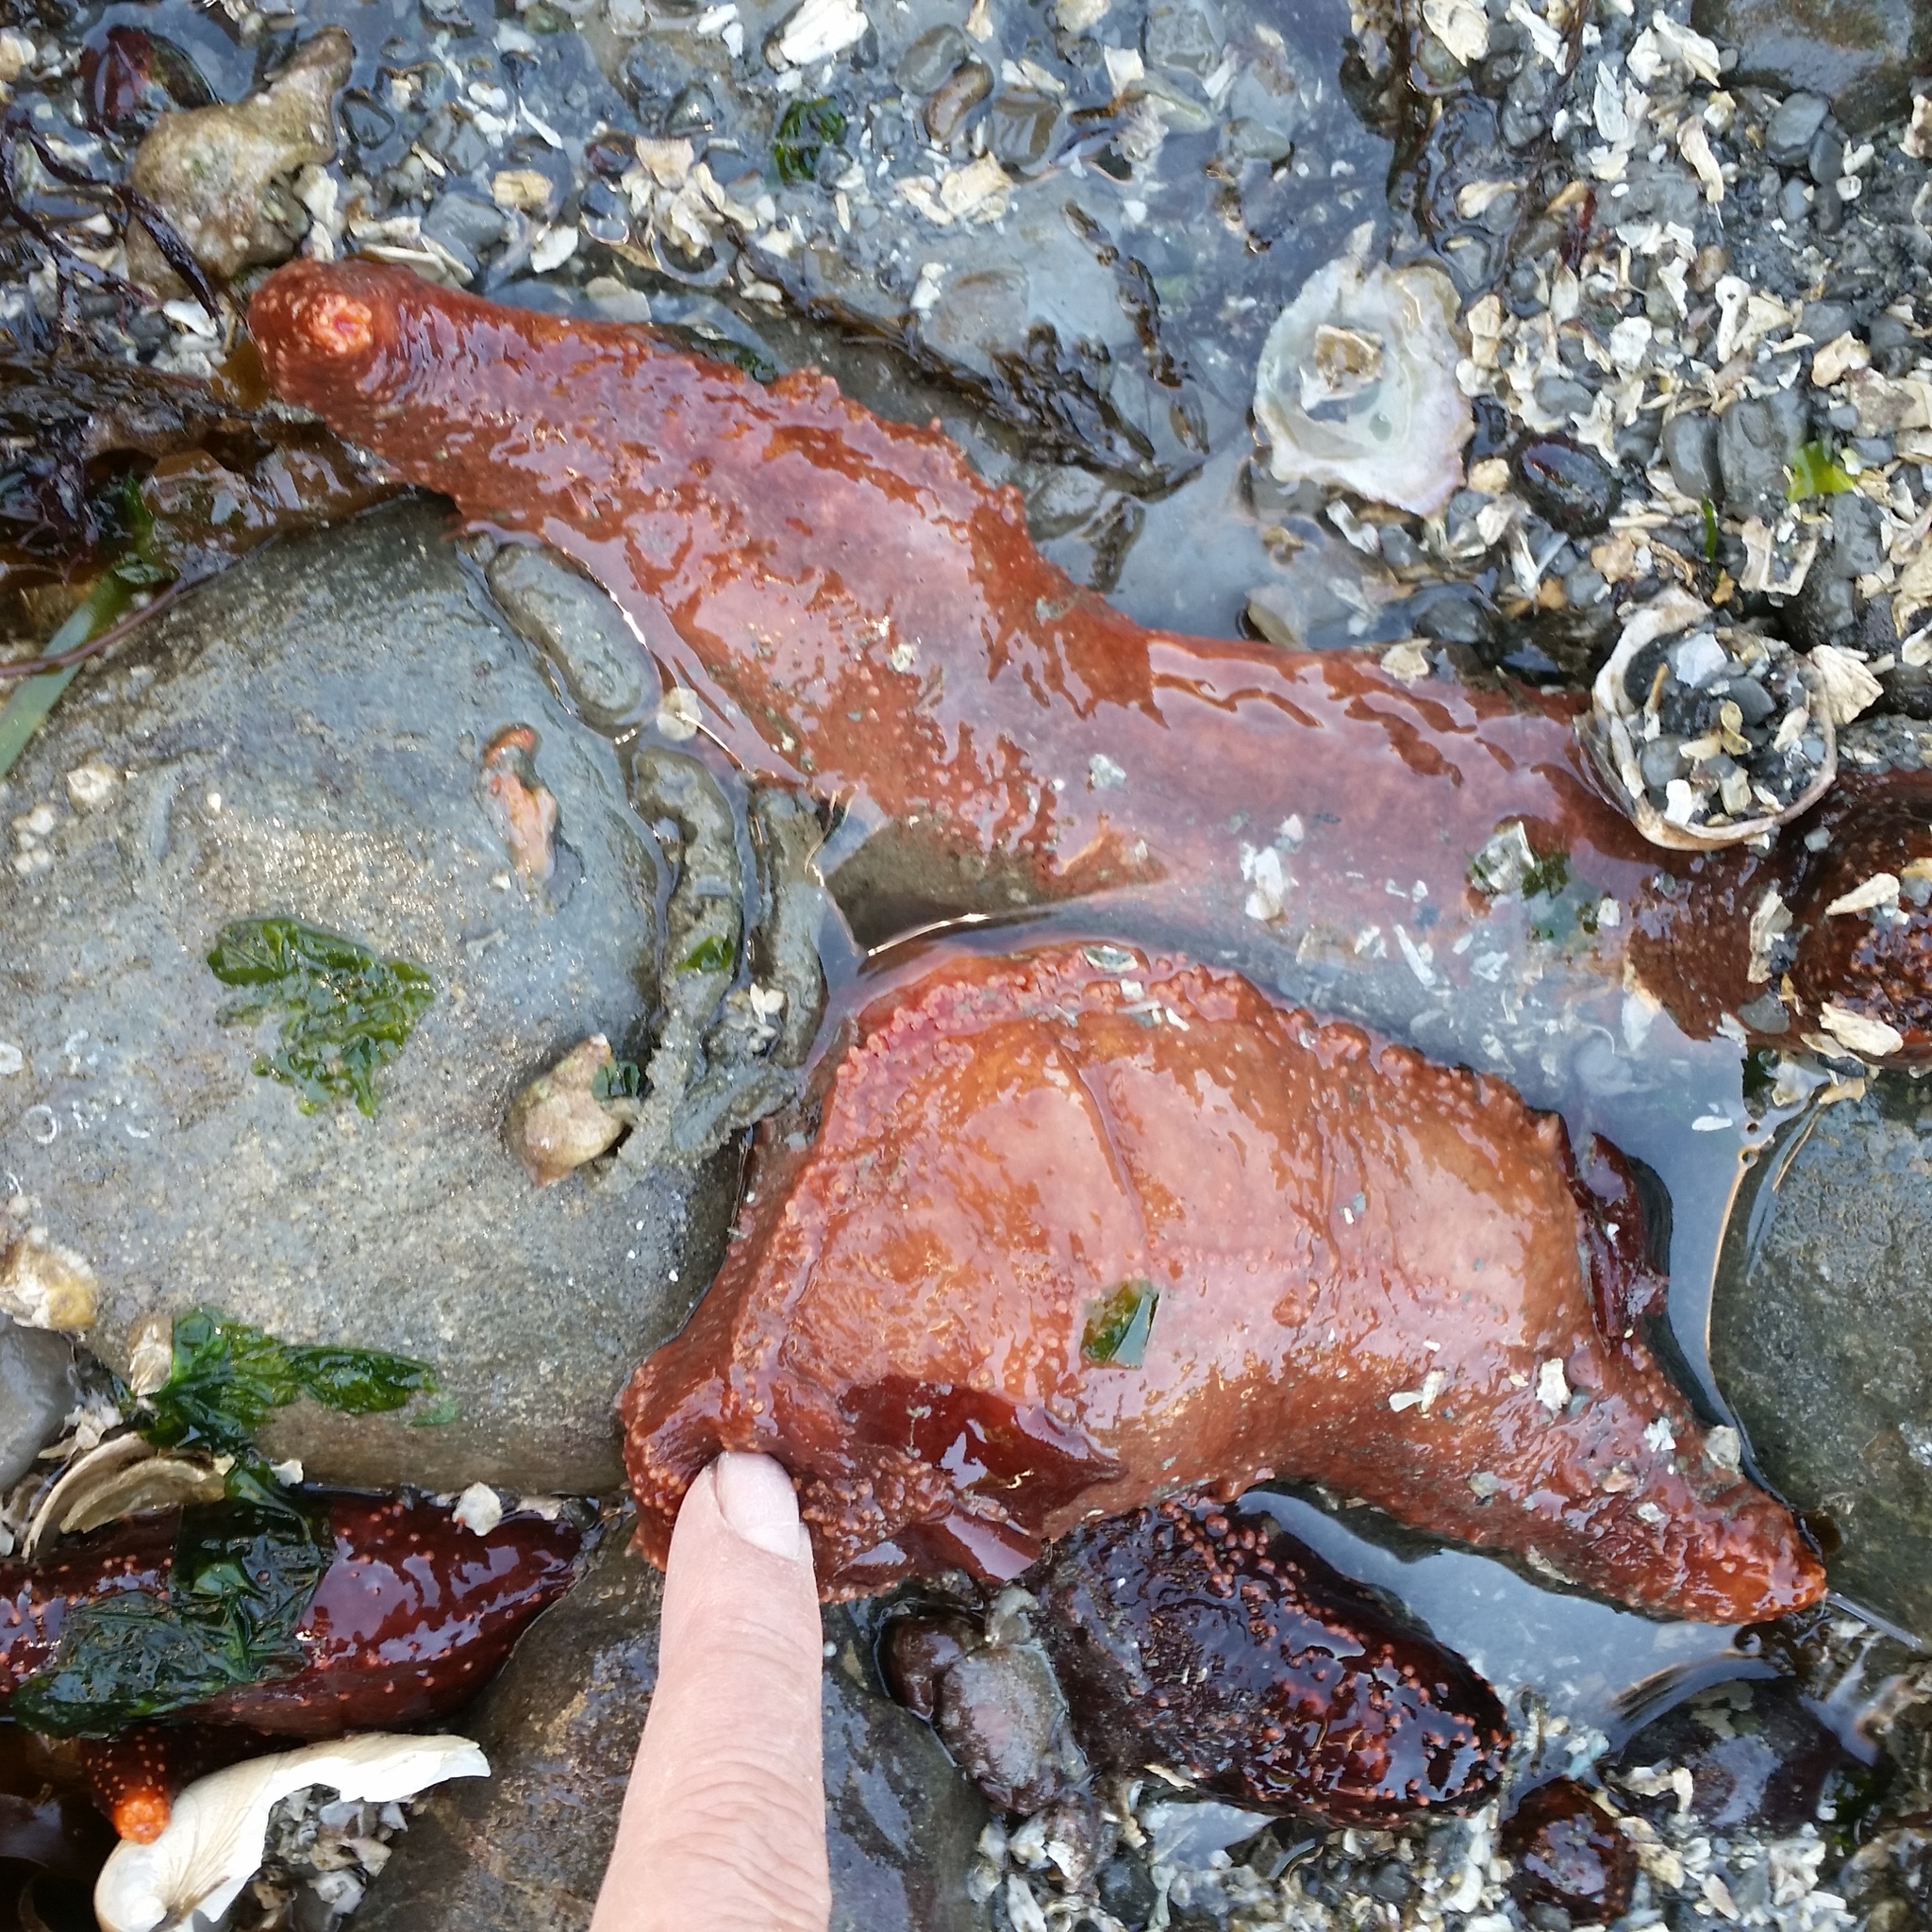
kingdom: Animalia
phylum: Echinodermata
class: Holothuroidea
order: Dendrochirotida
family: Cucumariidae
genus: Cucumaria
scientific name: Cucumaria miniata
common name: Orange sea cucumber
